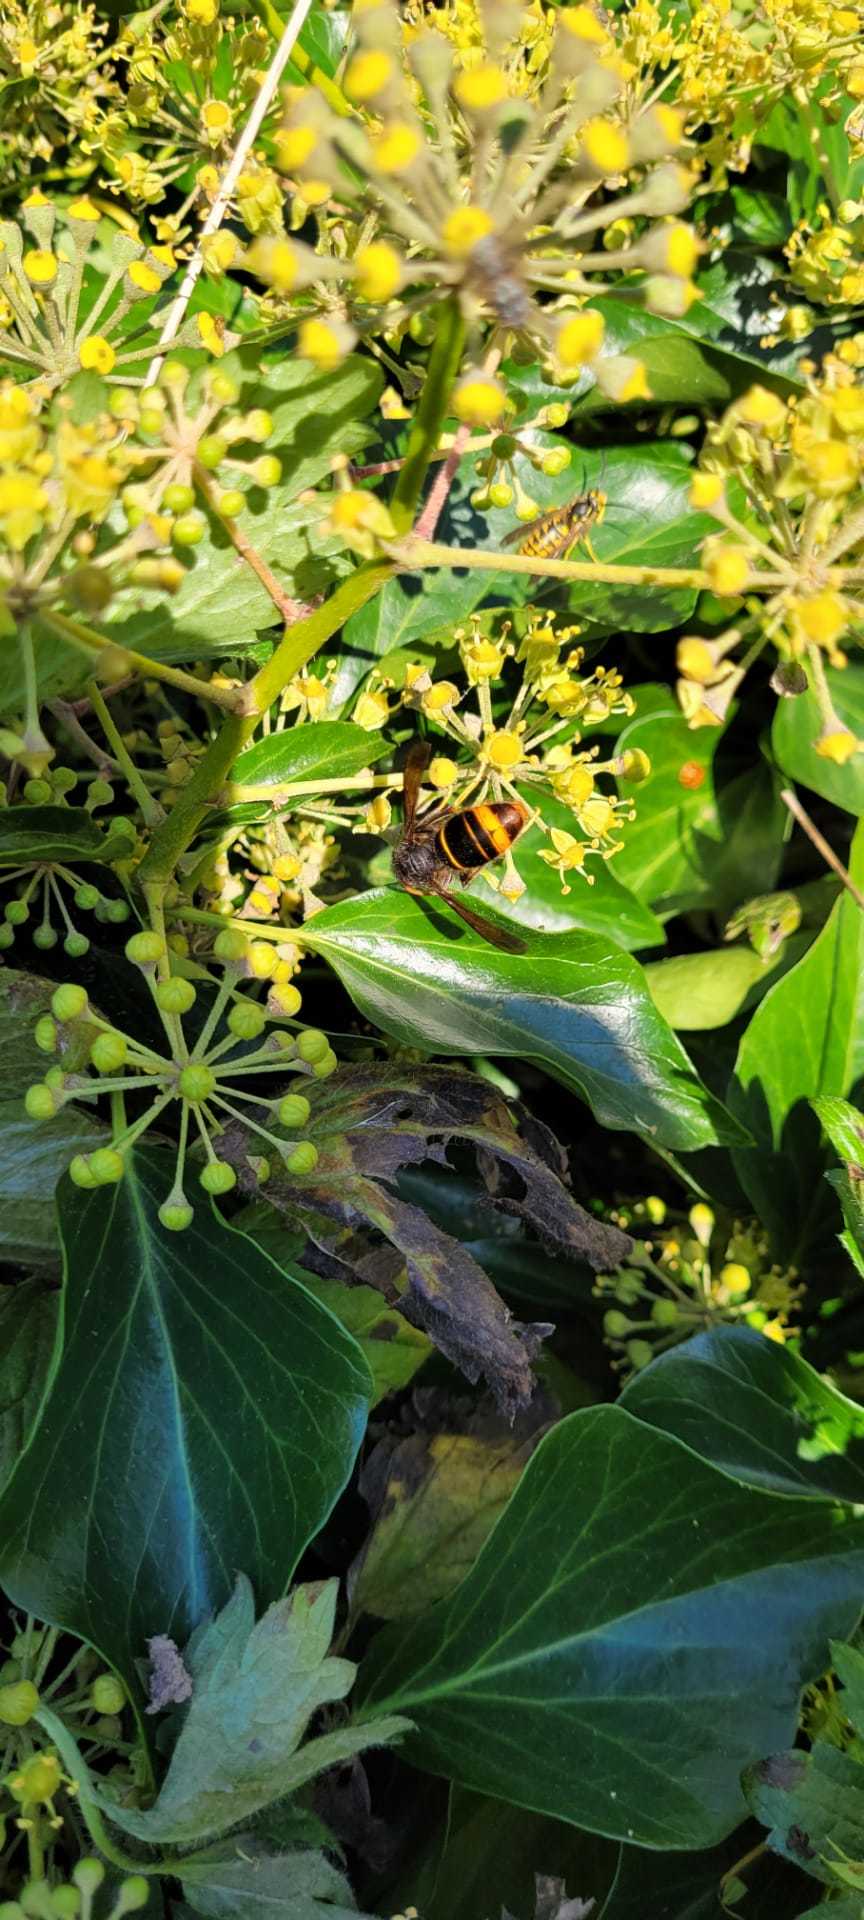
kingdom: Animalia
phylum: Arthropoda
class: Insecta
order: Hymenoptera
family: Vespidae
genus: Vespa
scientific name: Vespa velutina
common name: Asian hornet
